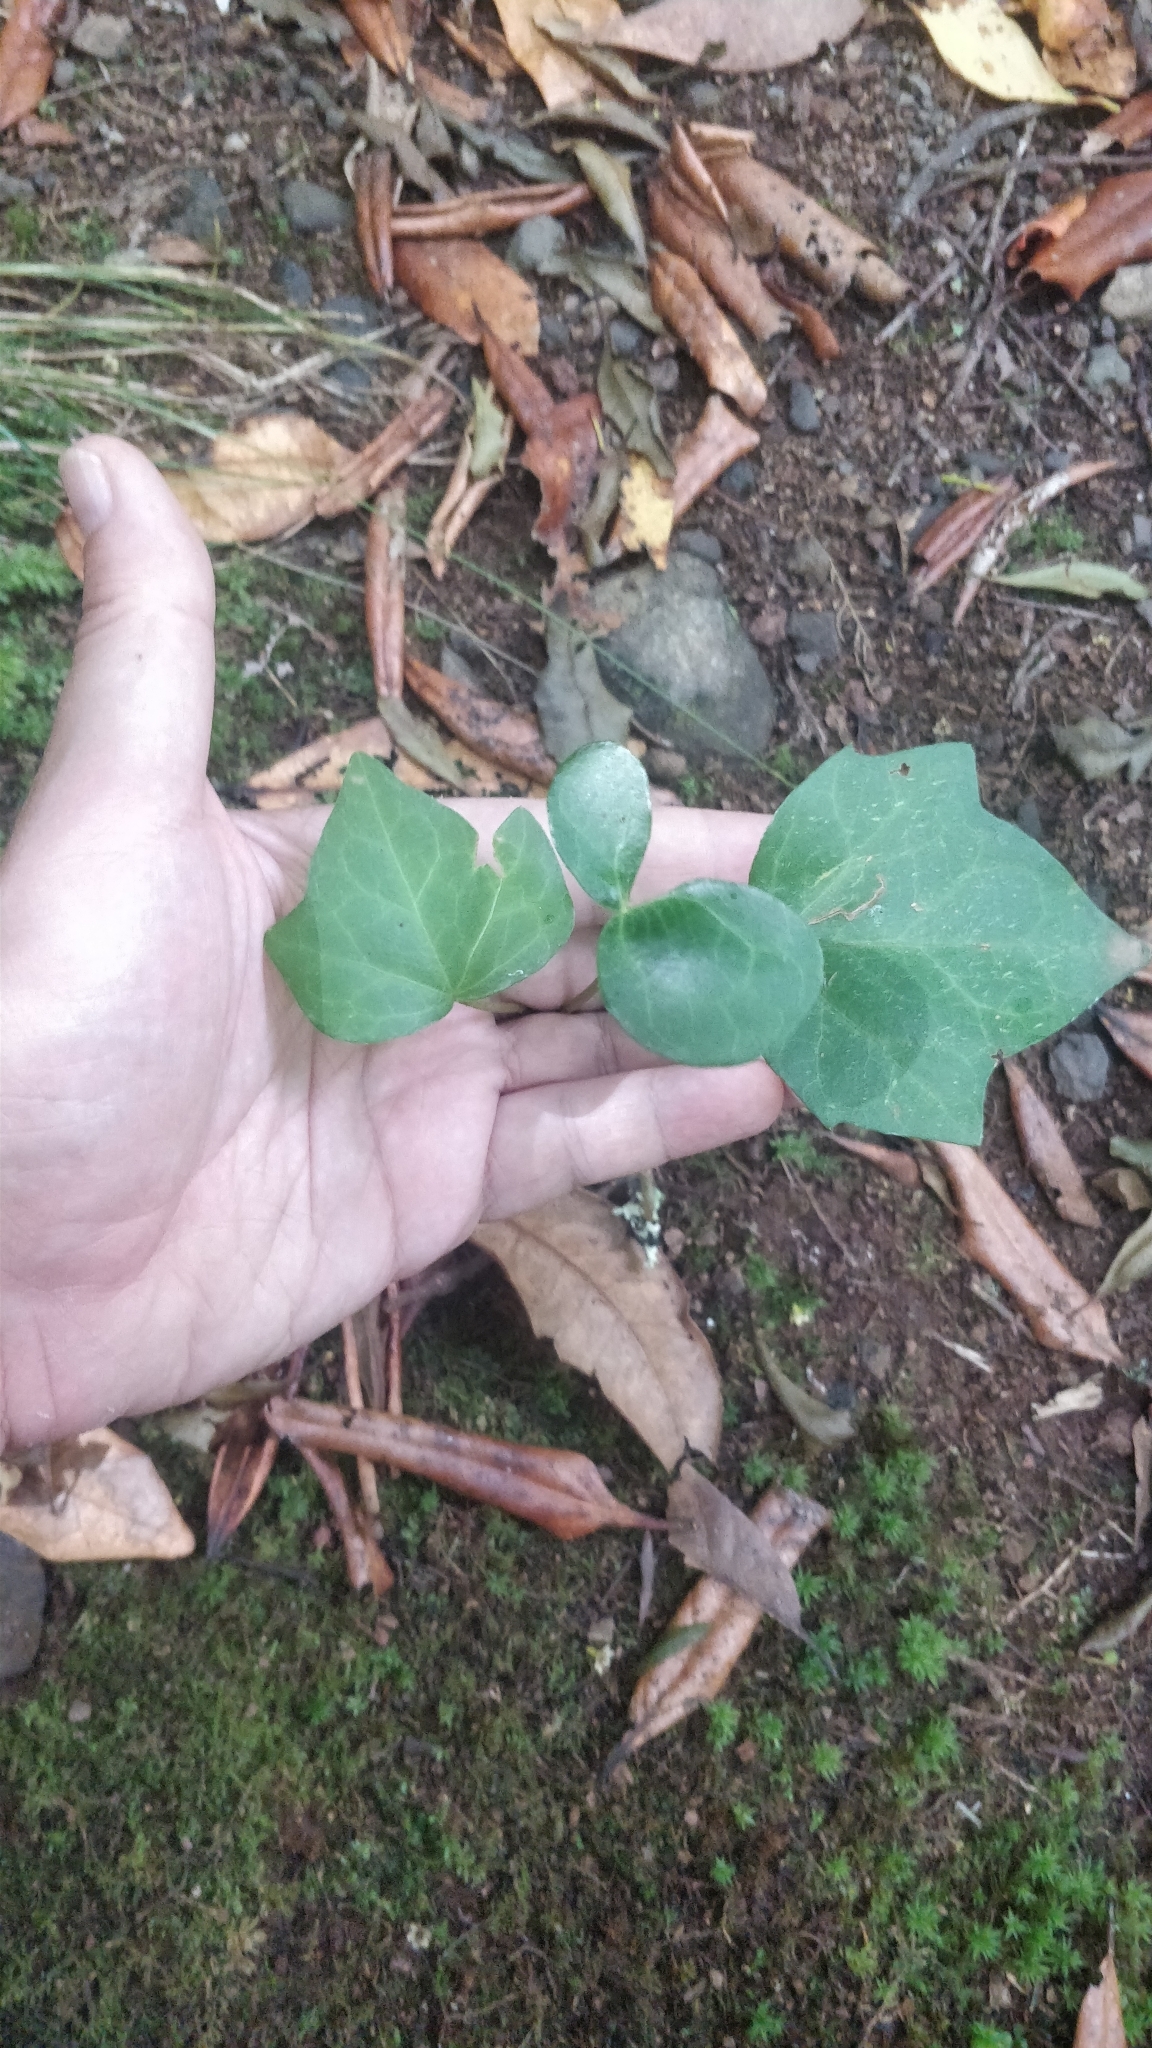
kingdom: Plantae
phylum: Tracheophyta
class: Magnoliopsida
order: Apiales
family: Araliaceae
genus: Hedera
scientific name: Hedera maderensis
